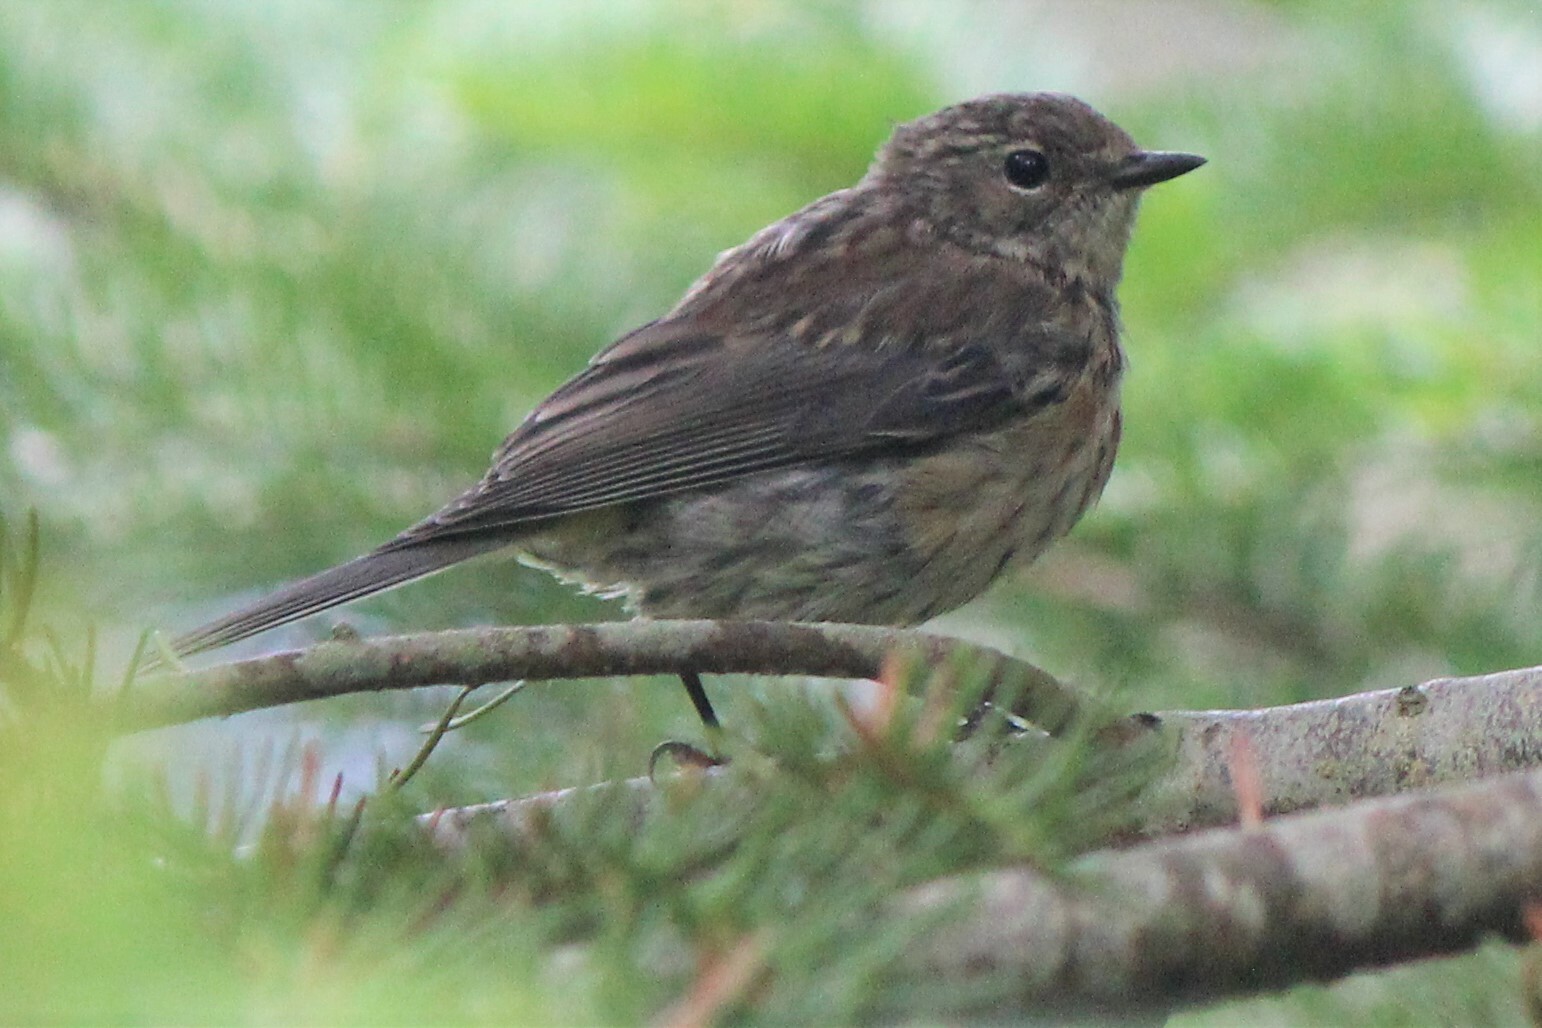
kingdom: Animalia
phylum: Chordata
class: Aves
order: Passeriformes
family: Parulidae
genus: Setophaga
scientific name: Setophaga coronata
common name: Myrtle warbler
